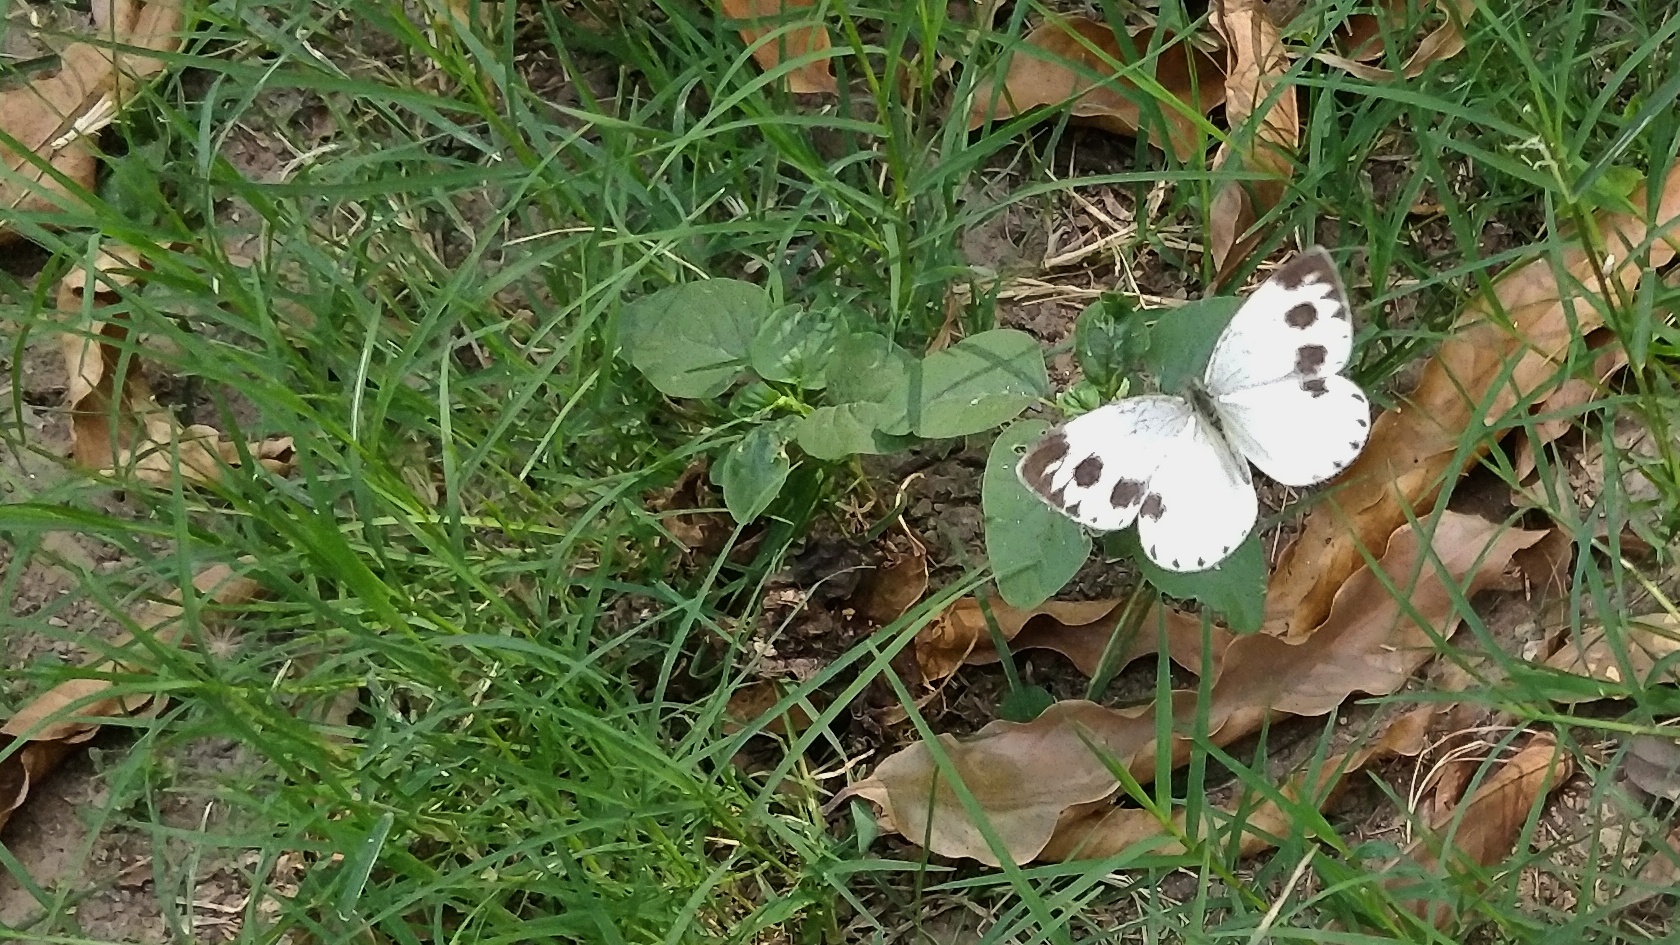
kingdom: Animalia
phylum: Arthropoda
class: Insecta
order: Lepidoptera
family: Pieridae
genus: Pieris
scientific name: Pieris canidia
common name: Indian cabbage white
